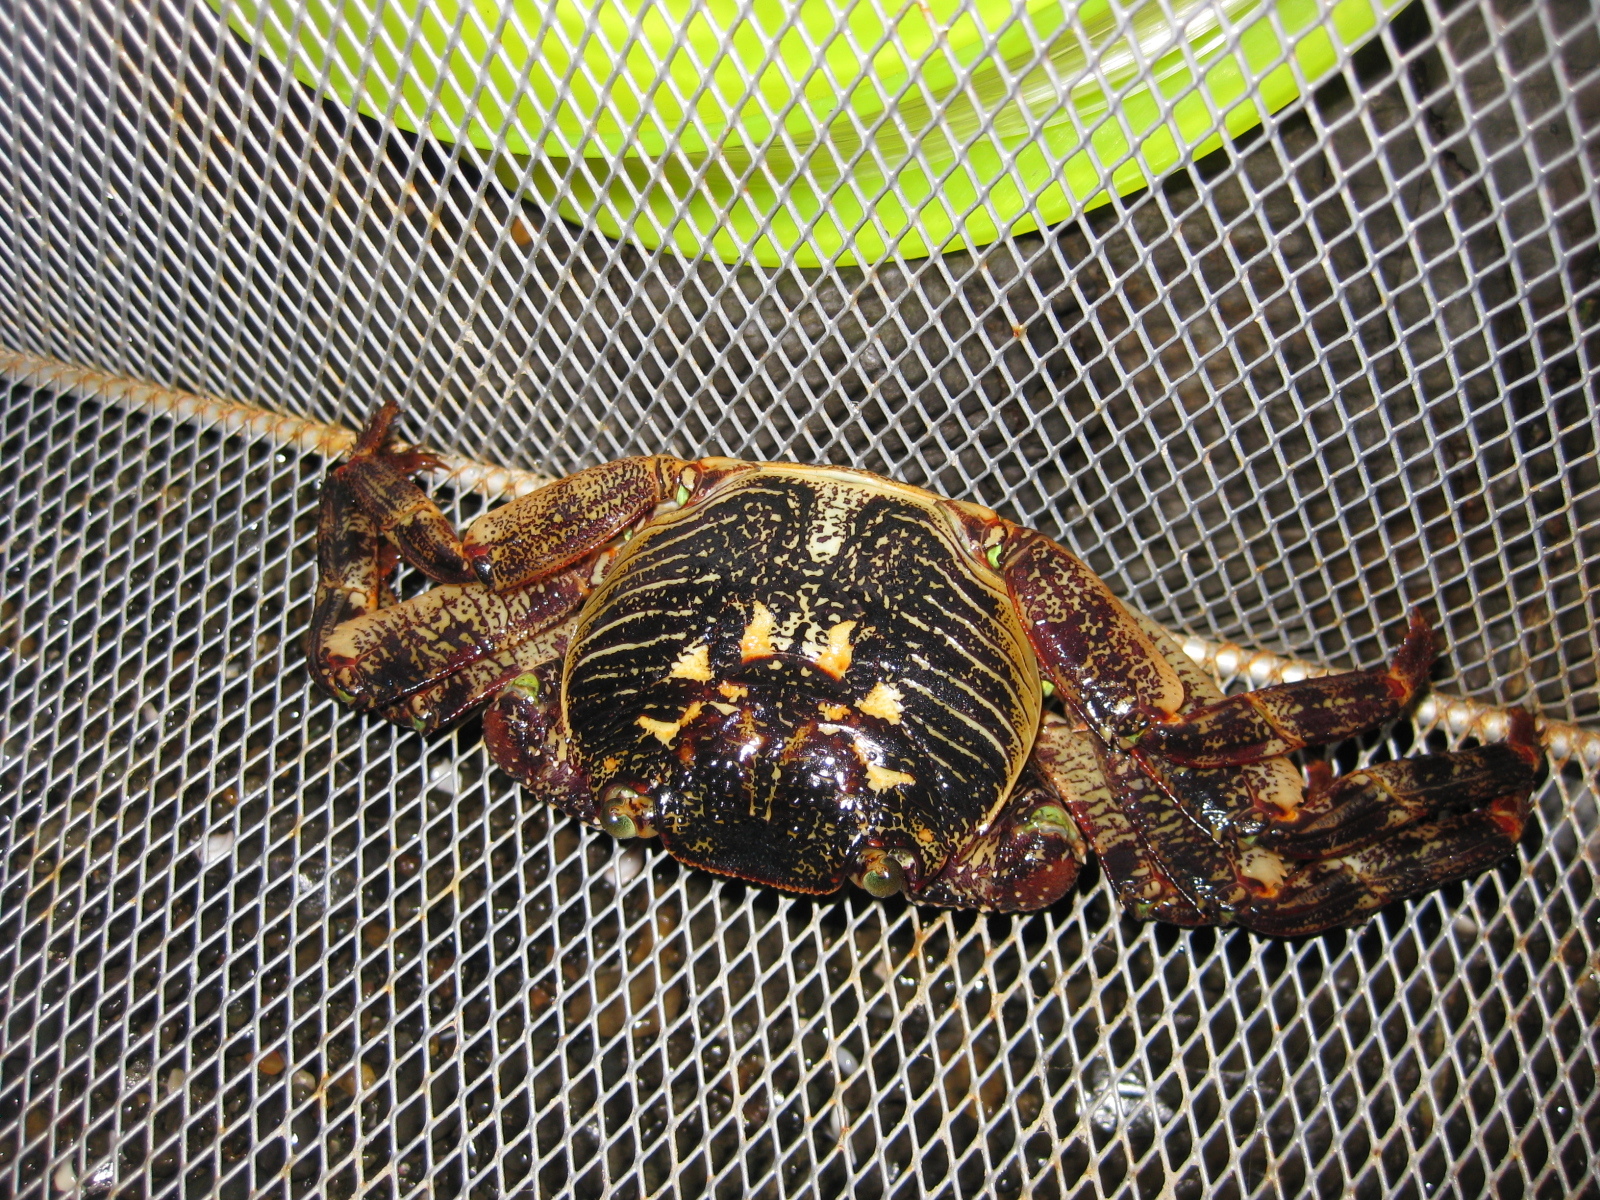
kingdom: Animalia
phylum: Arthropoda
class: Malacostraca
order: Decapoda
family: Grapsidae
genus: Leptograpsus
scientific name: Leptograpsus variegatus
